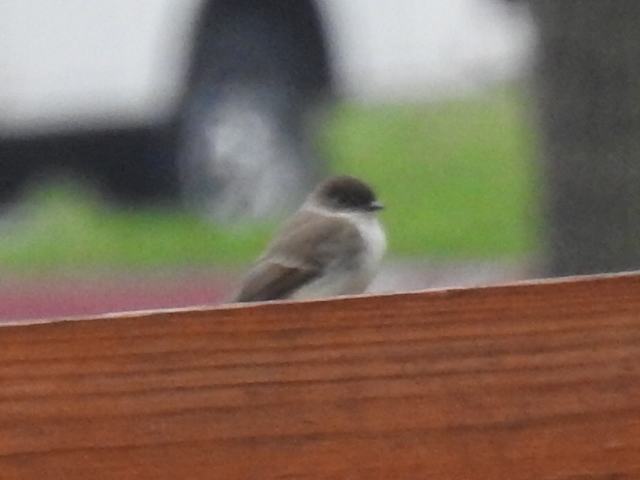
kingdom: Animalia
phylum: Chordata
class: Aves
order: Passeriformes
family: Tyrannidae
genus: Sayornis
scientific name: Sayornis phoebe
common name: Eastern phoebe
